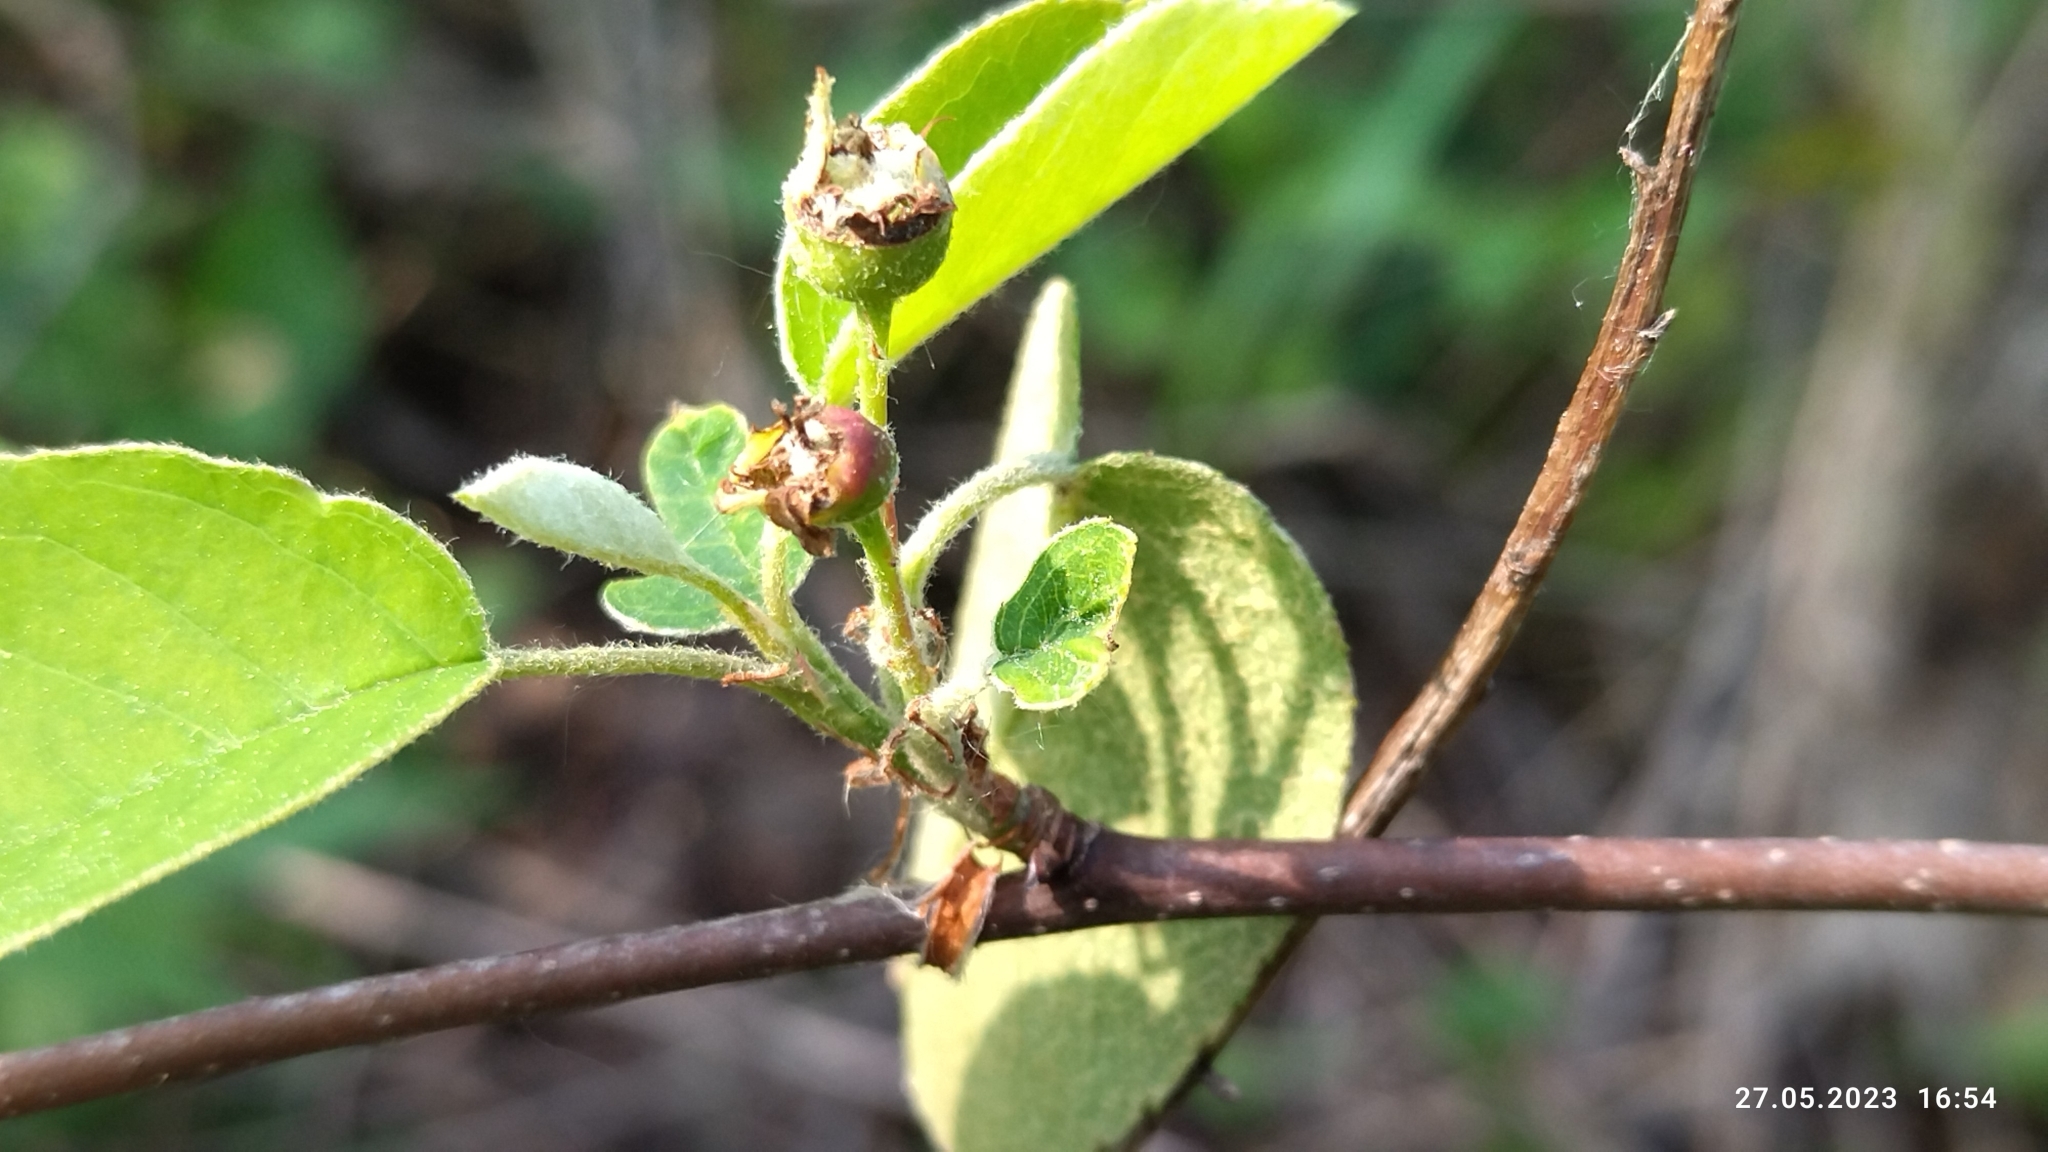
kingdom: Plantae
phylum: Tracheophyta
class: Magnoliopsida
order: Rosales
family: Rosaceae
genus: Amelanchier
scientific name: Amelanchier
